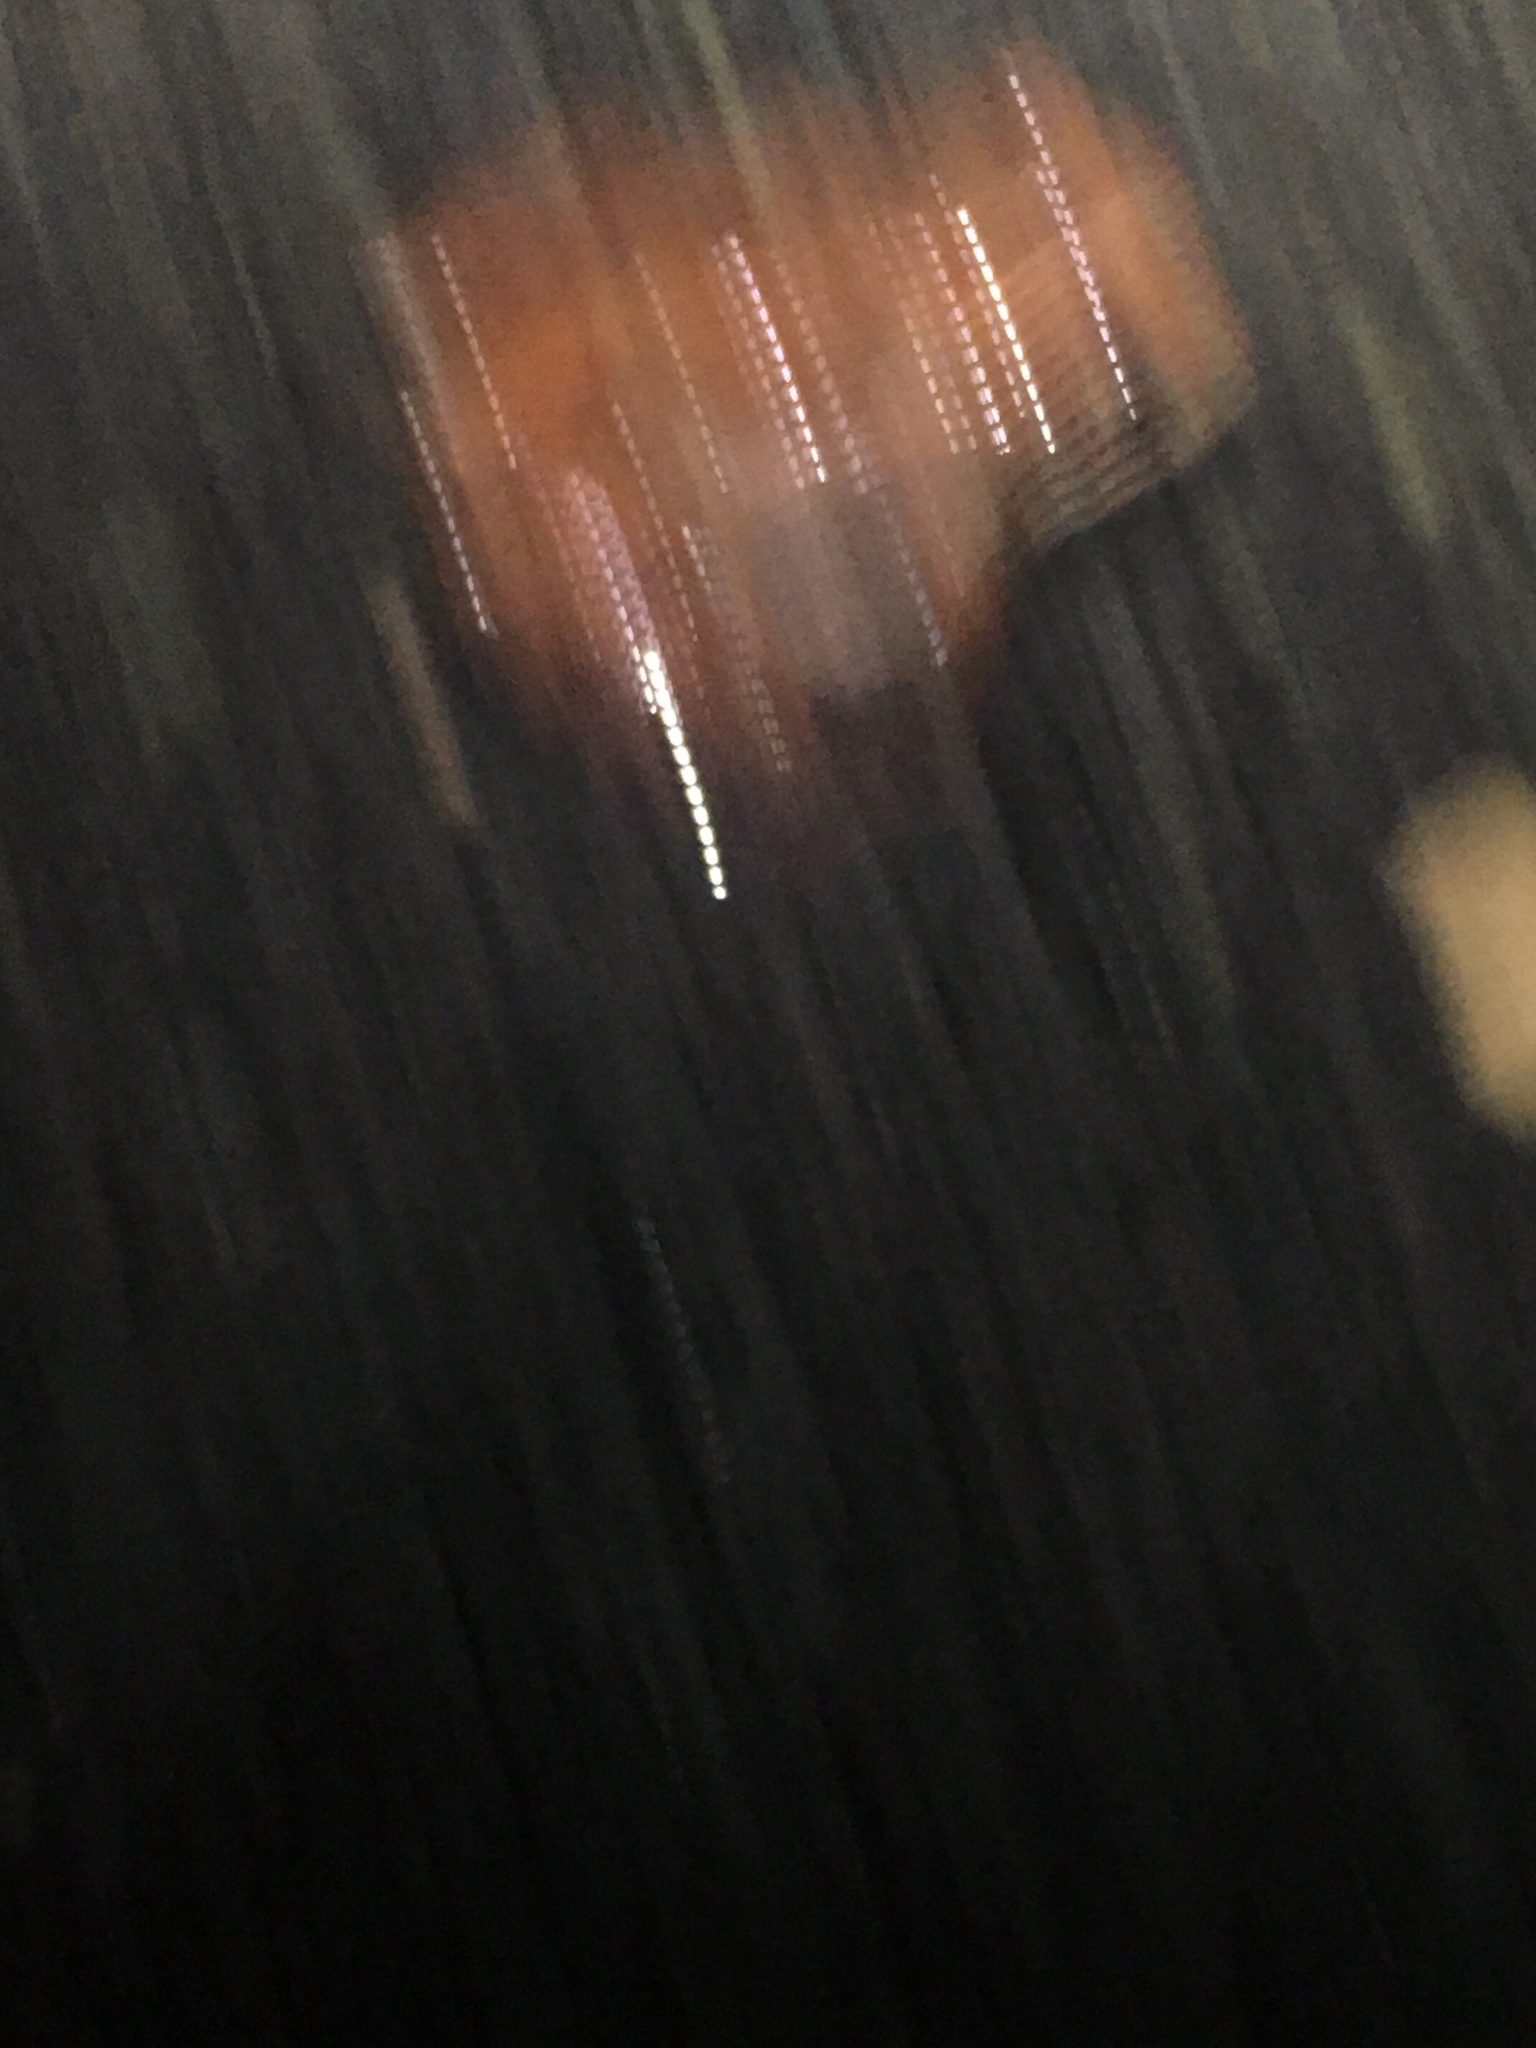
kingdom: Animalia
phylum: Chordata
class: Amphibia
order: Anura
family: Ranidae
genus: Lithobates
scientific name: Lithobates sylvaticus
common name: Wood frog
